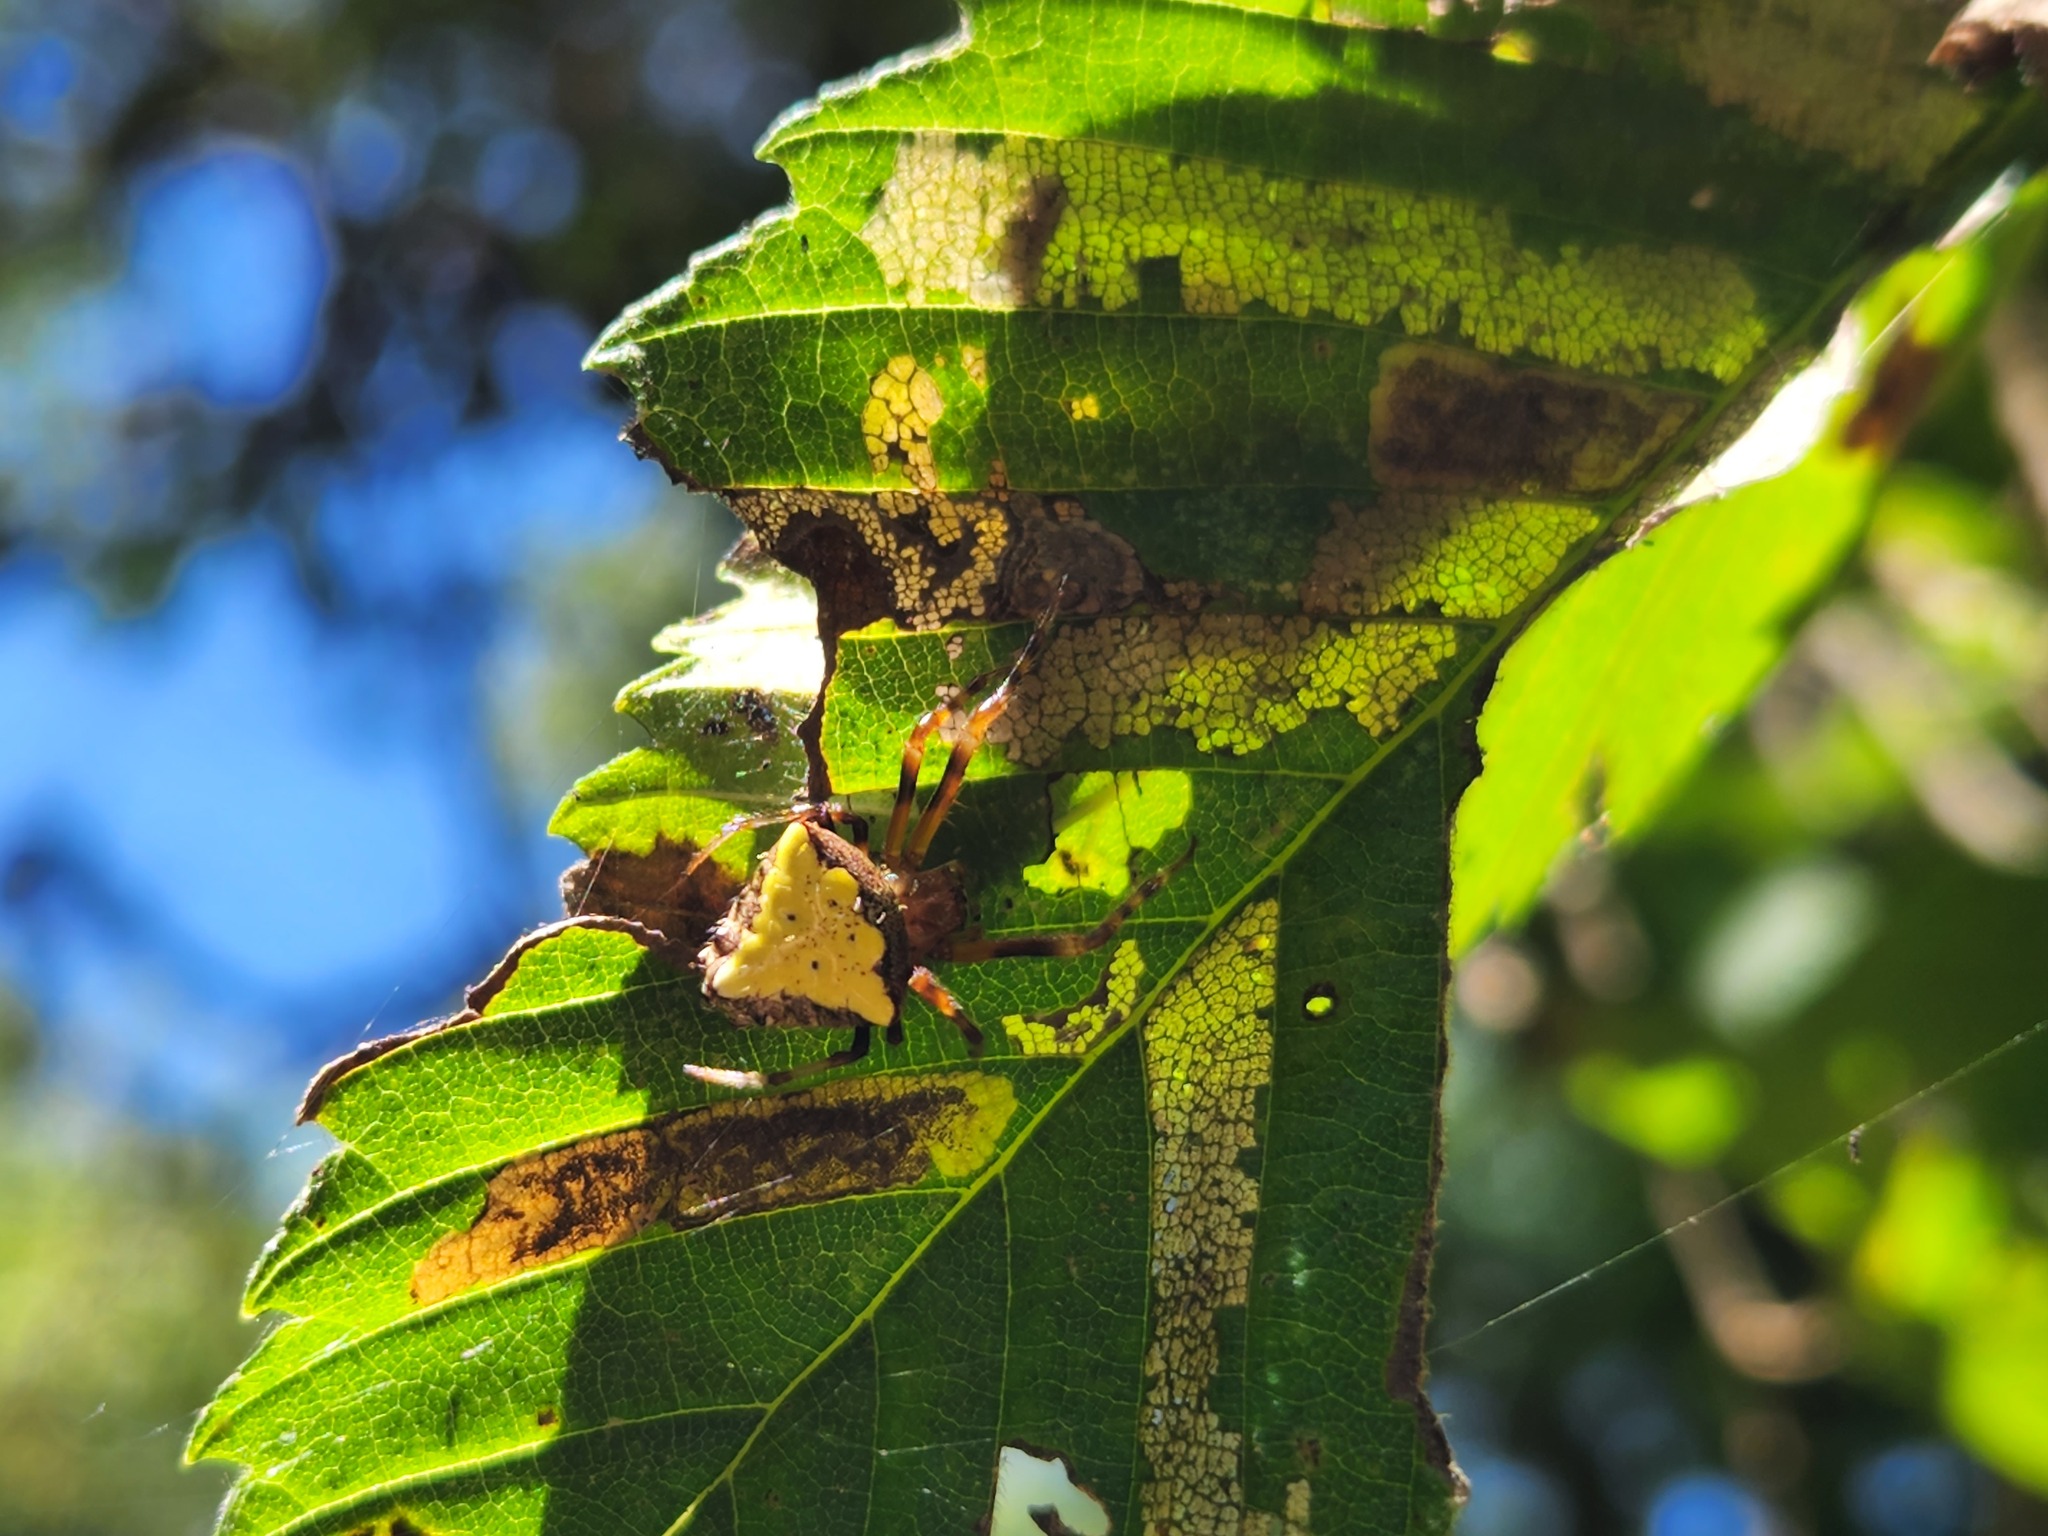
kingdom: Animalia
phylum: Arthropoda
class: Arachnida
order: Araneae
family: Araneidae
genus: Verrucosa
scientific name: Verrucosa arenata
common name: Orb weavers
